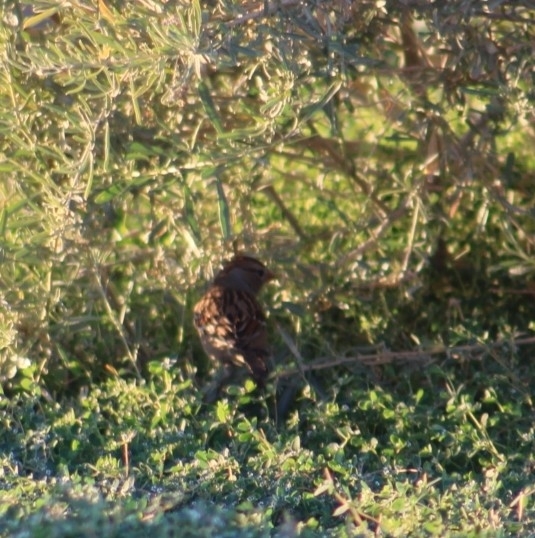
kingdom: Animalia
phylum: Chordata
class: Aves
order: Passeriformes
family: Passerellidae
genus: Zonotrichia
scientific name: Zonotrichia leucophrys
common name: White-crowned sparrow
